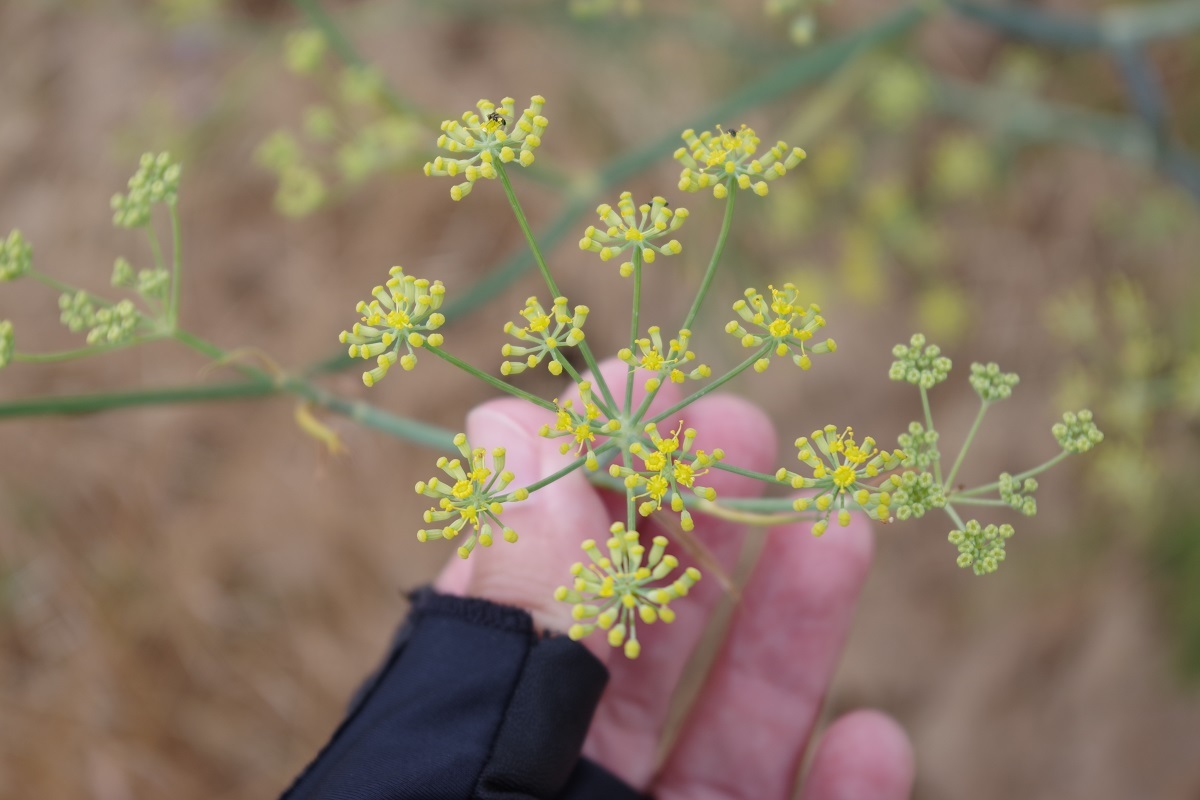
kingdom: Plantae
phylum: Tracheophyta
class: Magnoliopsida
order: Apiales
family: Apiaceae
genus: Foeniculum
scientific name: Foeniculum vulgare
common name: Fennel
